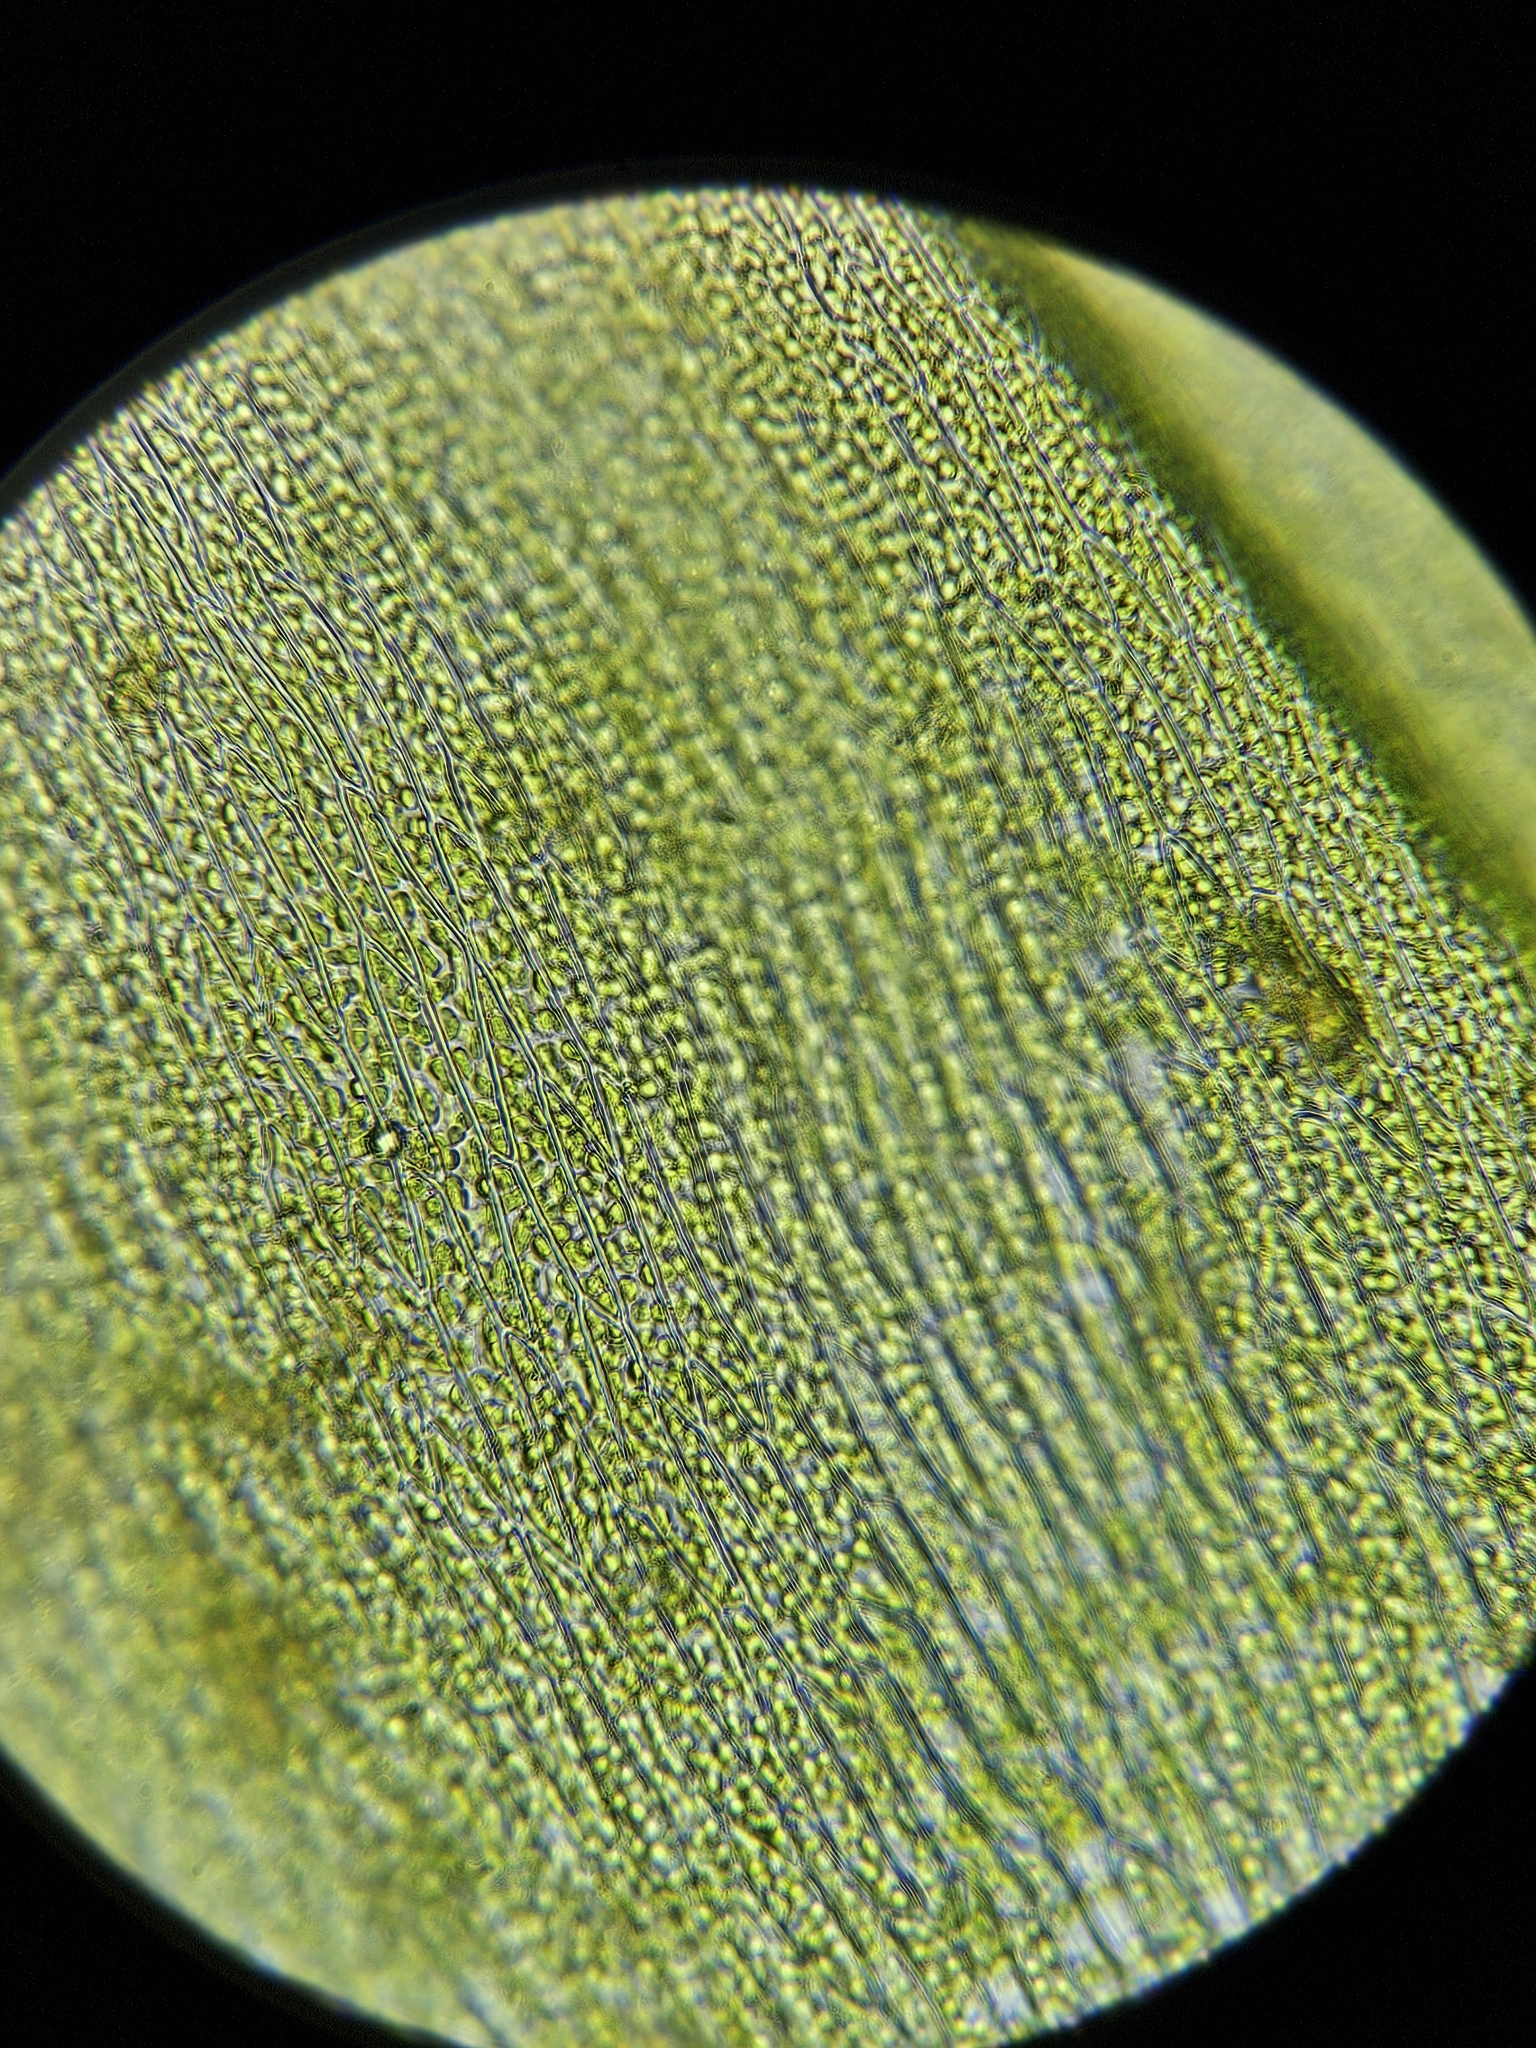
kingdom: Plantae
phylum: Bryophyta
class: Bryopsida
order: Hypnales
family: Brachytheciaceae
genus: Rhynchostegium
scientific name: Rhynchostegium murale
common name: Wall feather-moss
